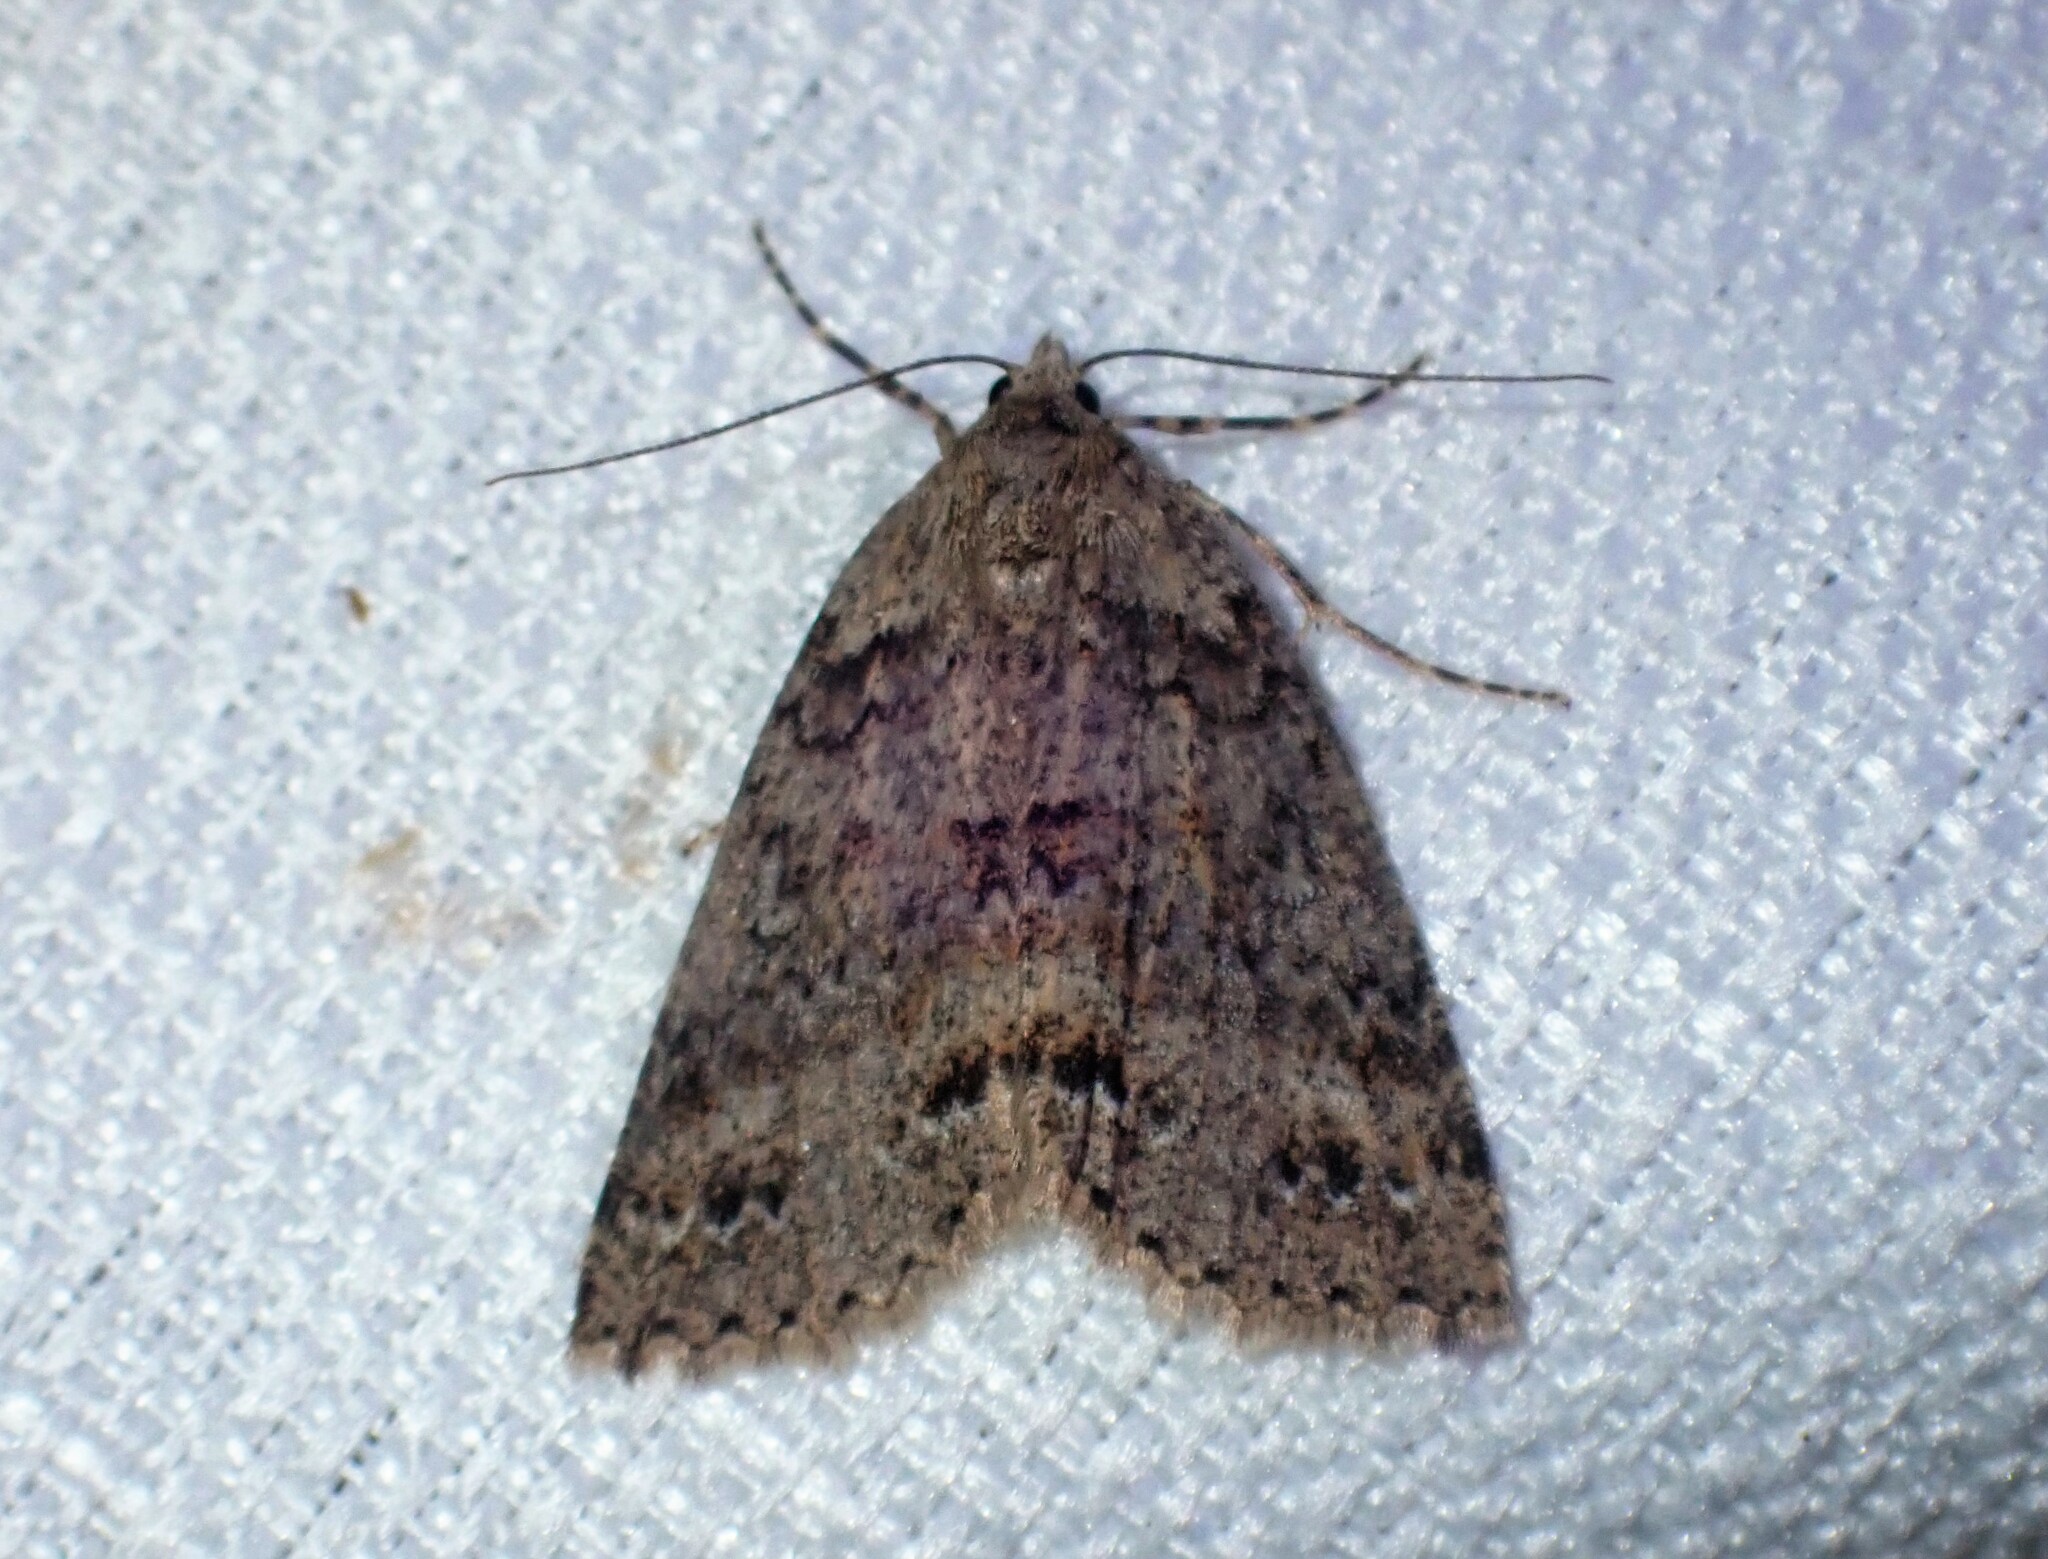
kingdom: Animalia
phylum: Arthropoda
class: Insecta
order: Lepidoptera
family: Geometridae
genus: Ascotis
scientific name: Ascotis fortunata
